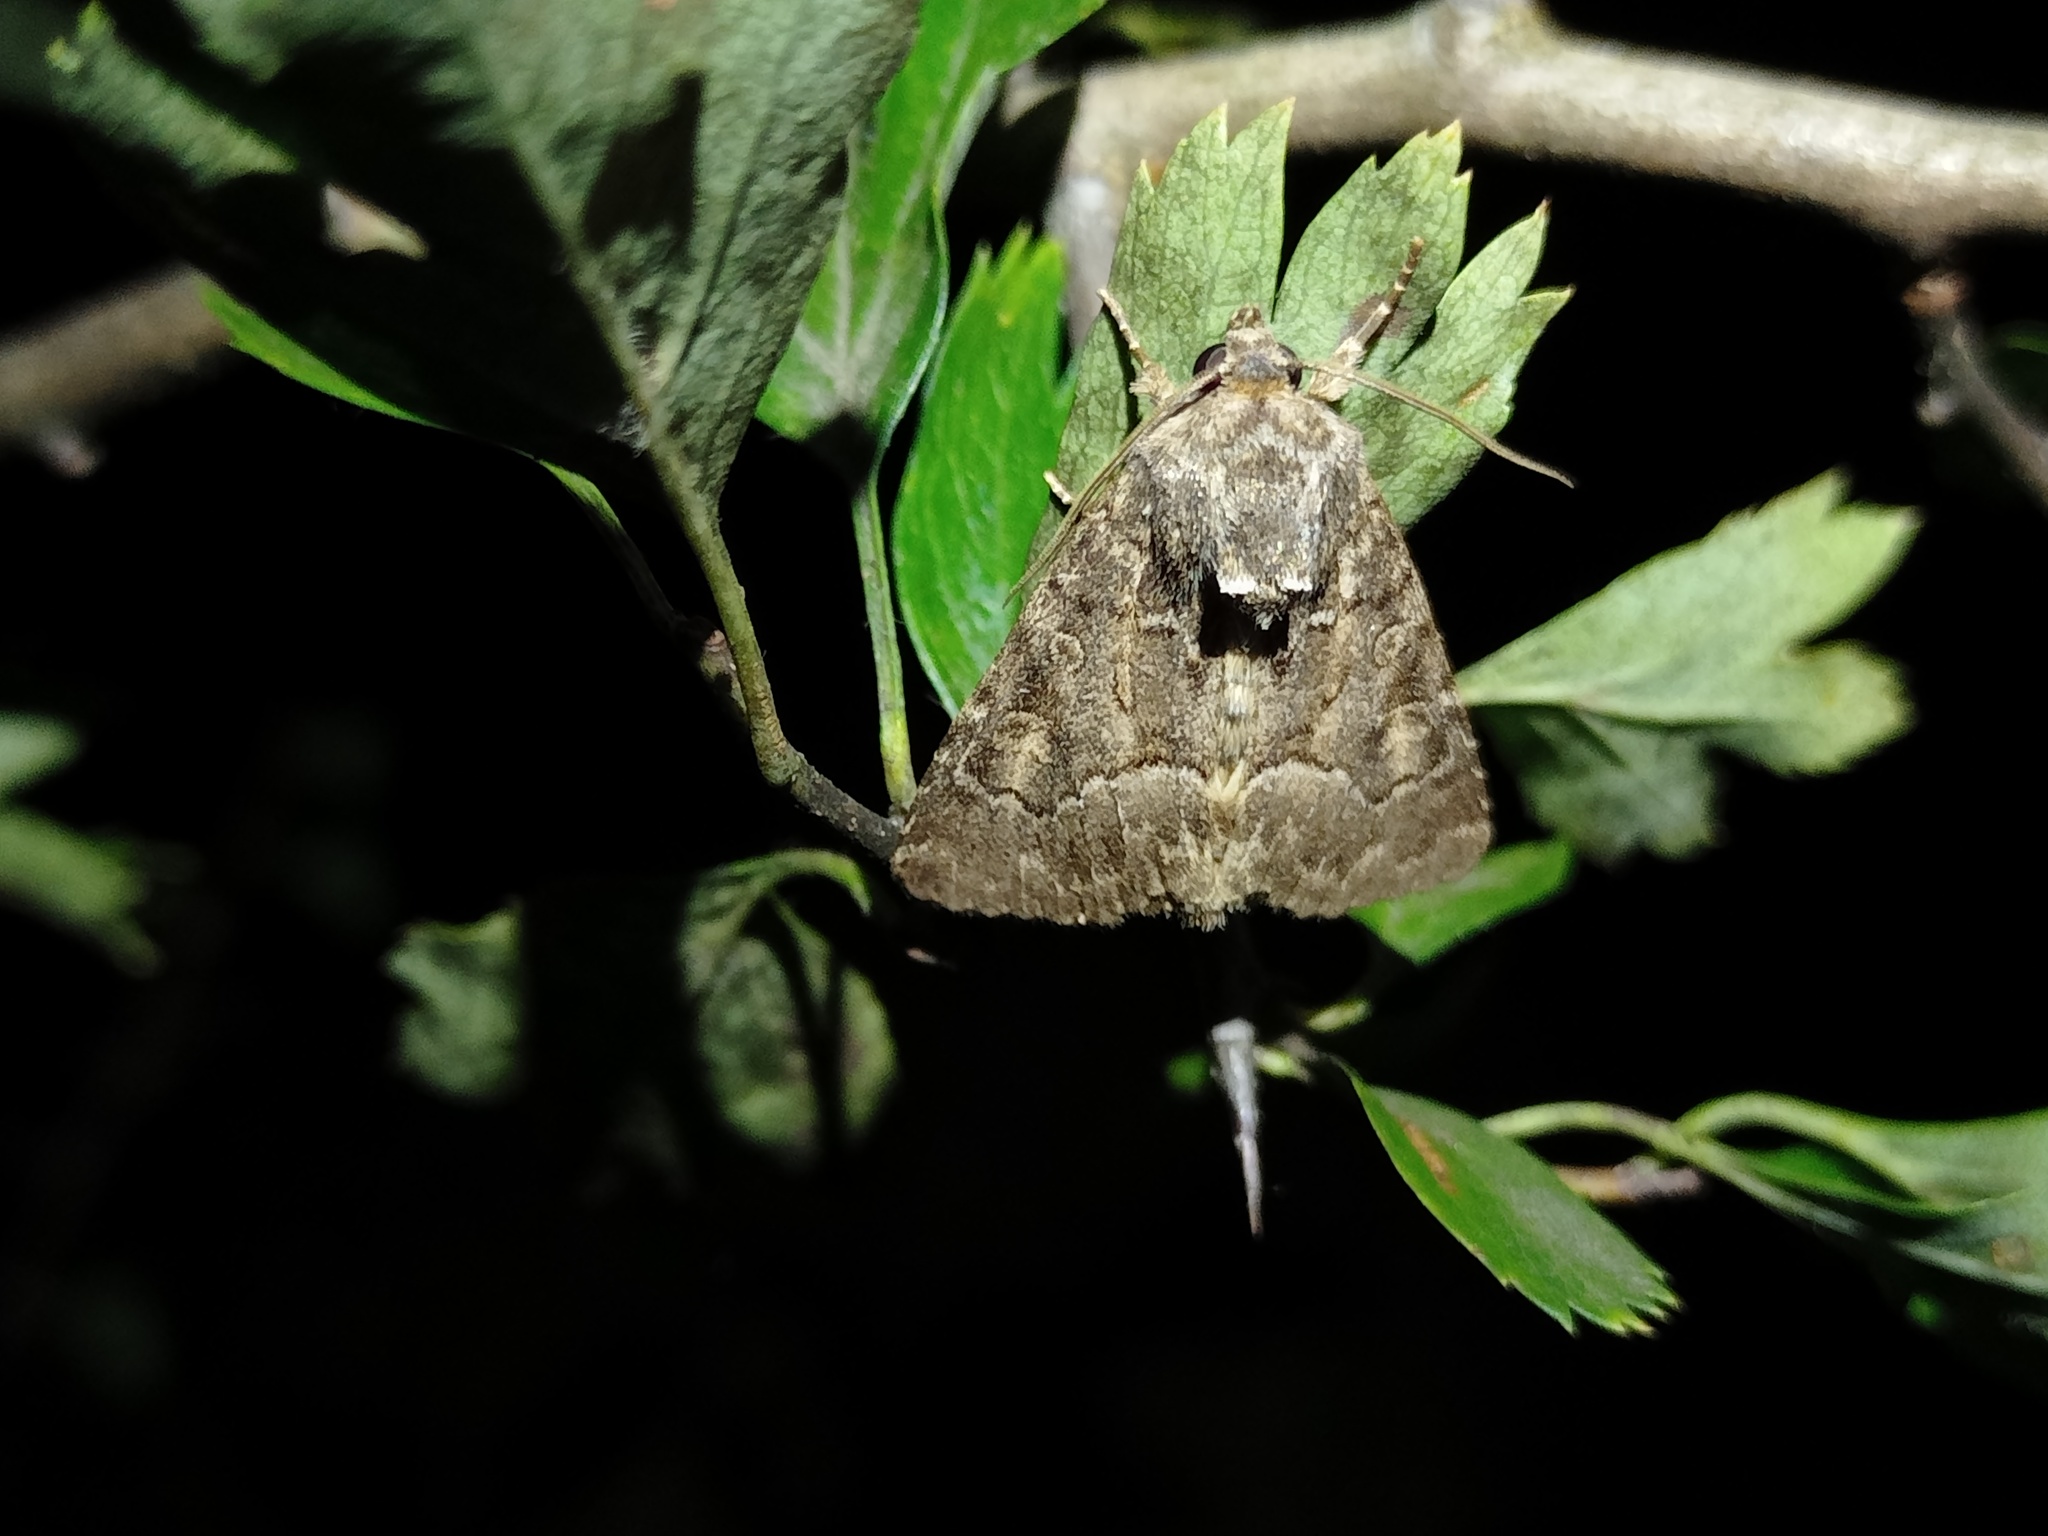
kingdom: Animalia
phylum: Arthropoda
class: Insecta
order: Lepidoptera
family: Noctuidae
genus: Thalpophila
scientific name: Thalpophila matura
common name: Straw underwing
